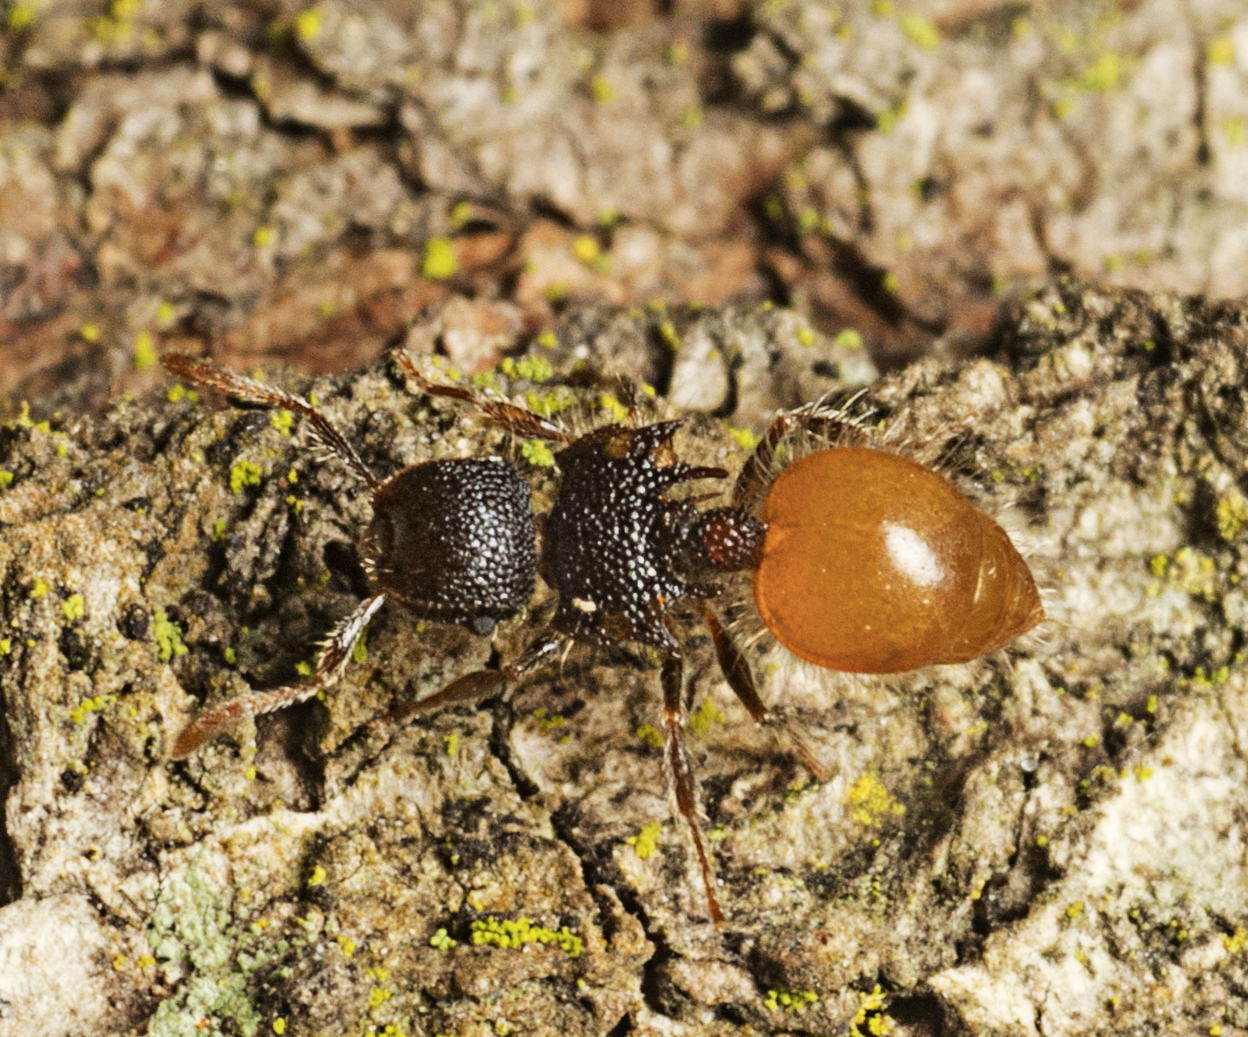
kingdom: Animalia
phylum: Arthropoda
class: Insecta
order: Hymenoptera
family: Formicidae
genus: Meranoplus
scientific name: Meranoplus hirsutus
